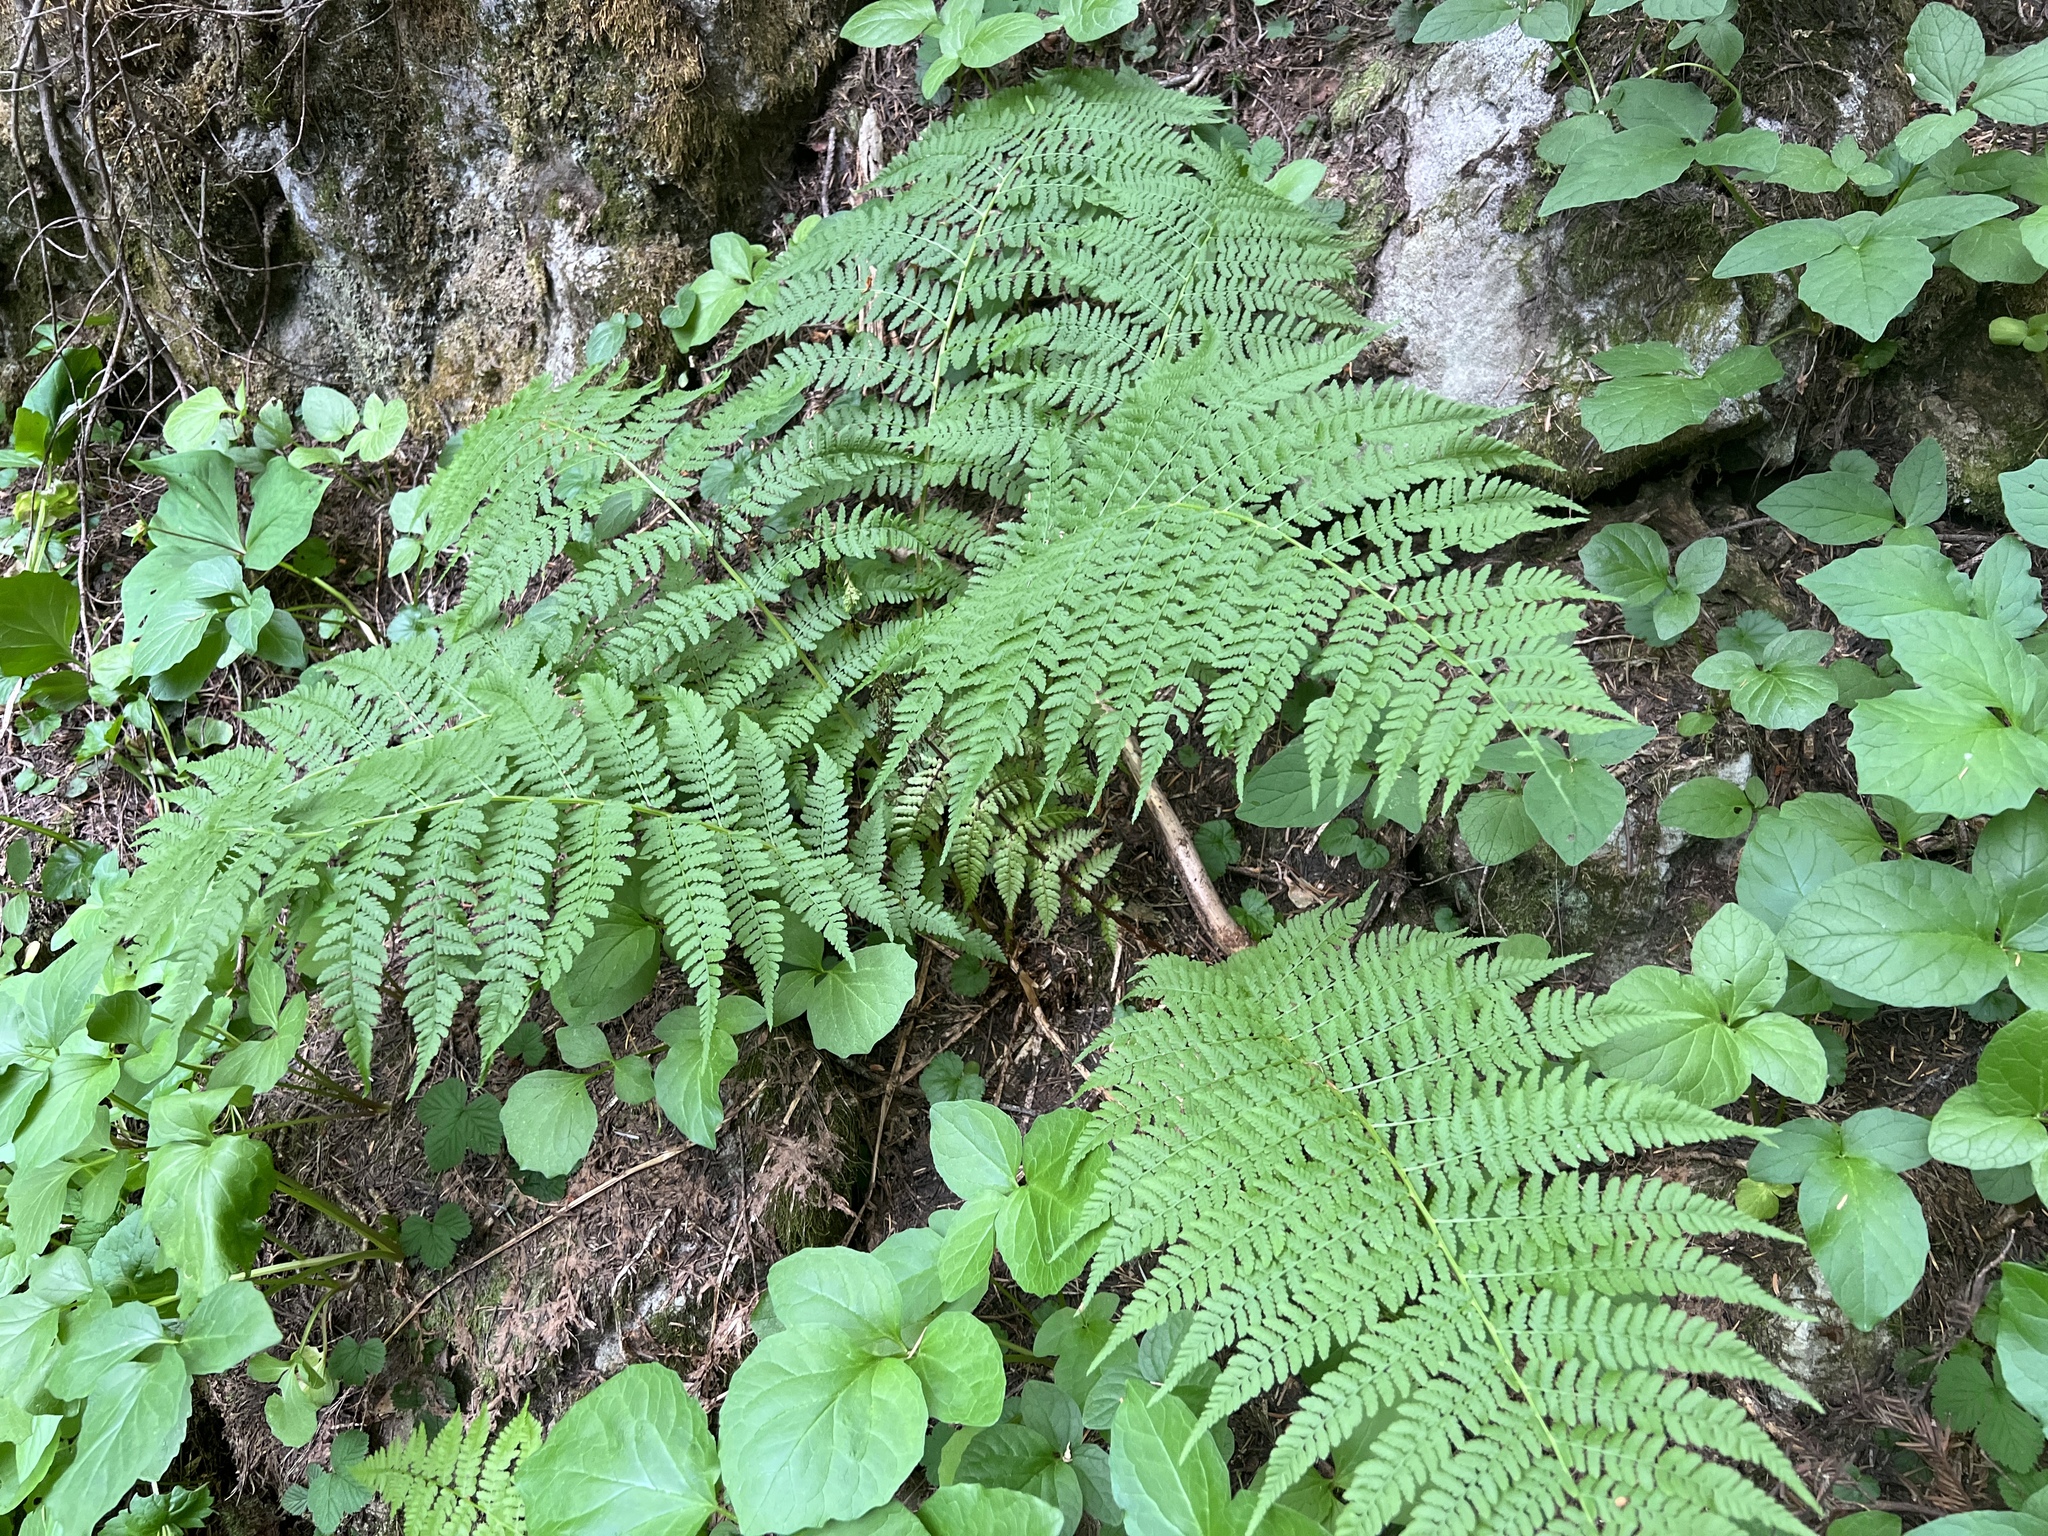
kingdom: Plantae
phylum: Tracheophyta
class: Polypodiopsida
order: Polypodiales
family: Athyriaceae
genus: Athyrium
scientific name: Athyrium filix-femina
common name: Lady fern
